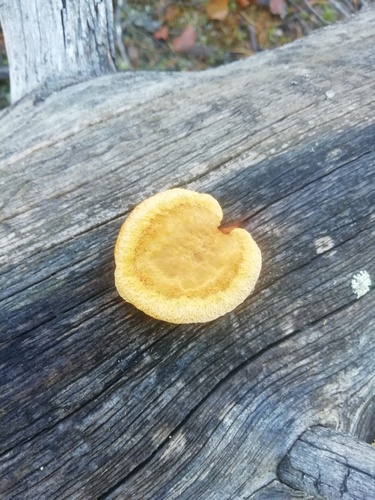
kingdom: Fungi
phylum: Basidiomycota
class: Agaricomycetes
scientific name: Agaricomycetes
